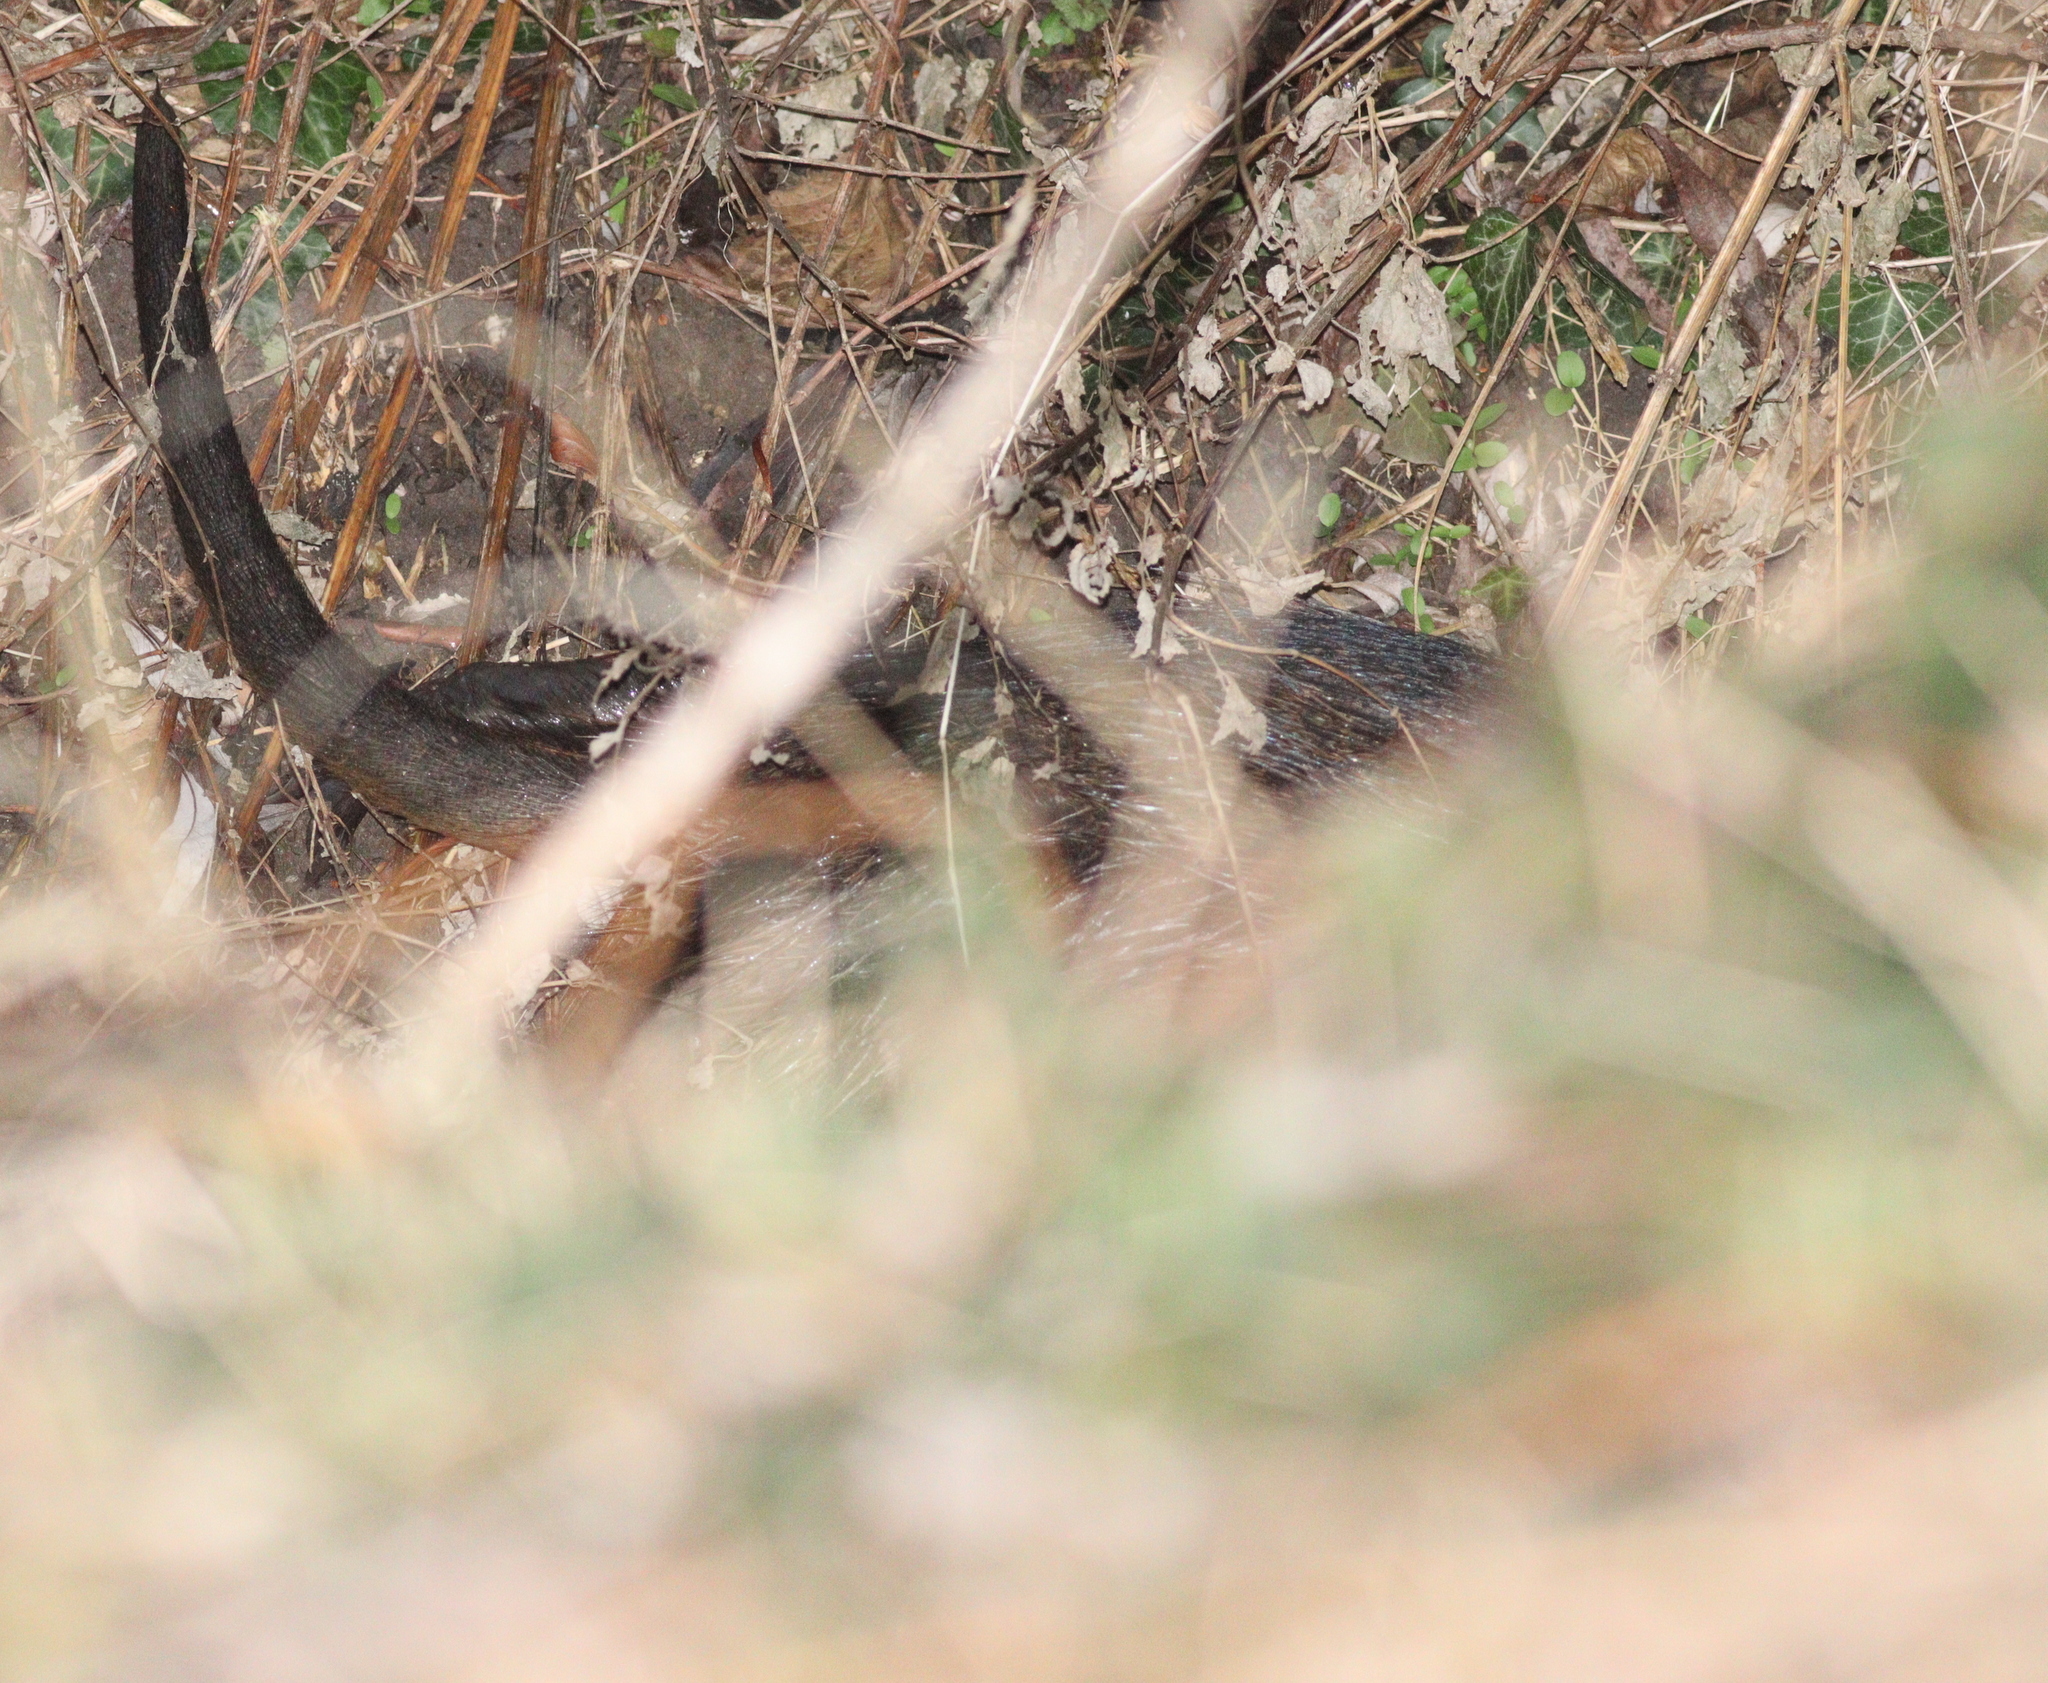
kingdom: Animalia
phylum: Chordata
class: Mammalia
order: Rodentia
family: Myocastoridae
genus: Myocastor
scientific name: Myocastor coypus
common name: Coypu
